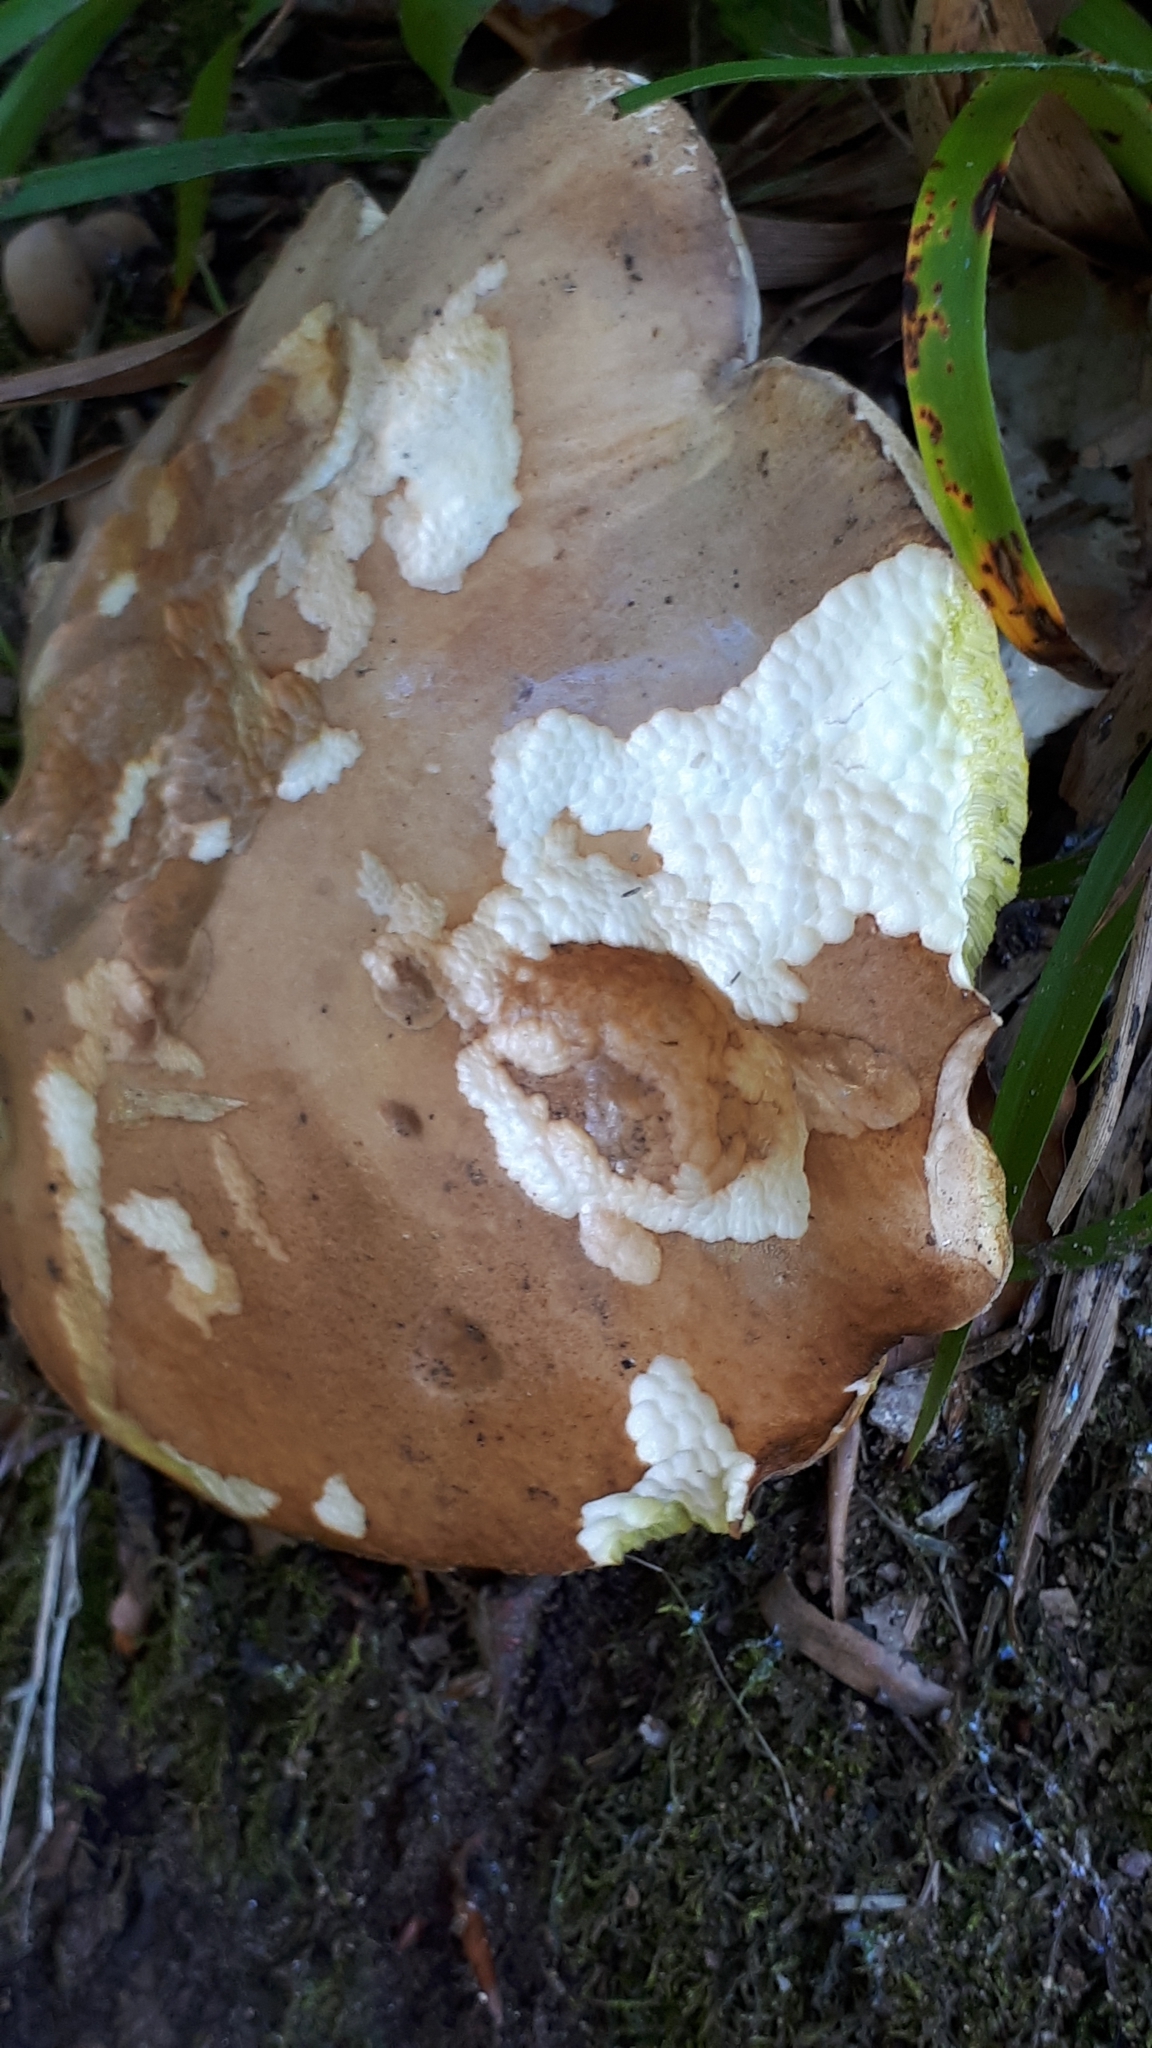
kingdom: Fungi
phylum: Basidiomycota
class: Agaricomycetes
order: Boletales
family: Boletaceae
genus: Boletus
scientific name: Boletus reticulatus
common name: Summer bolete
